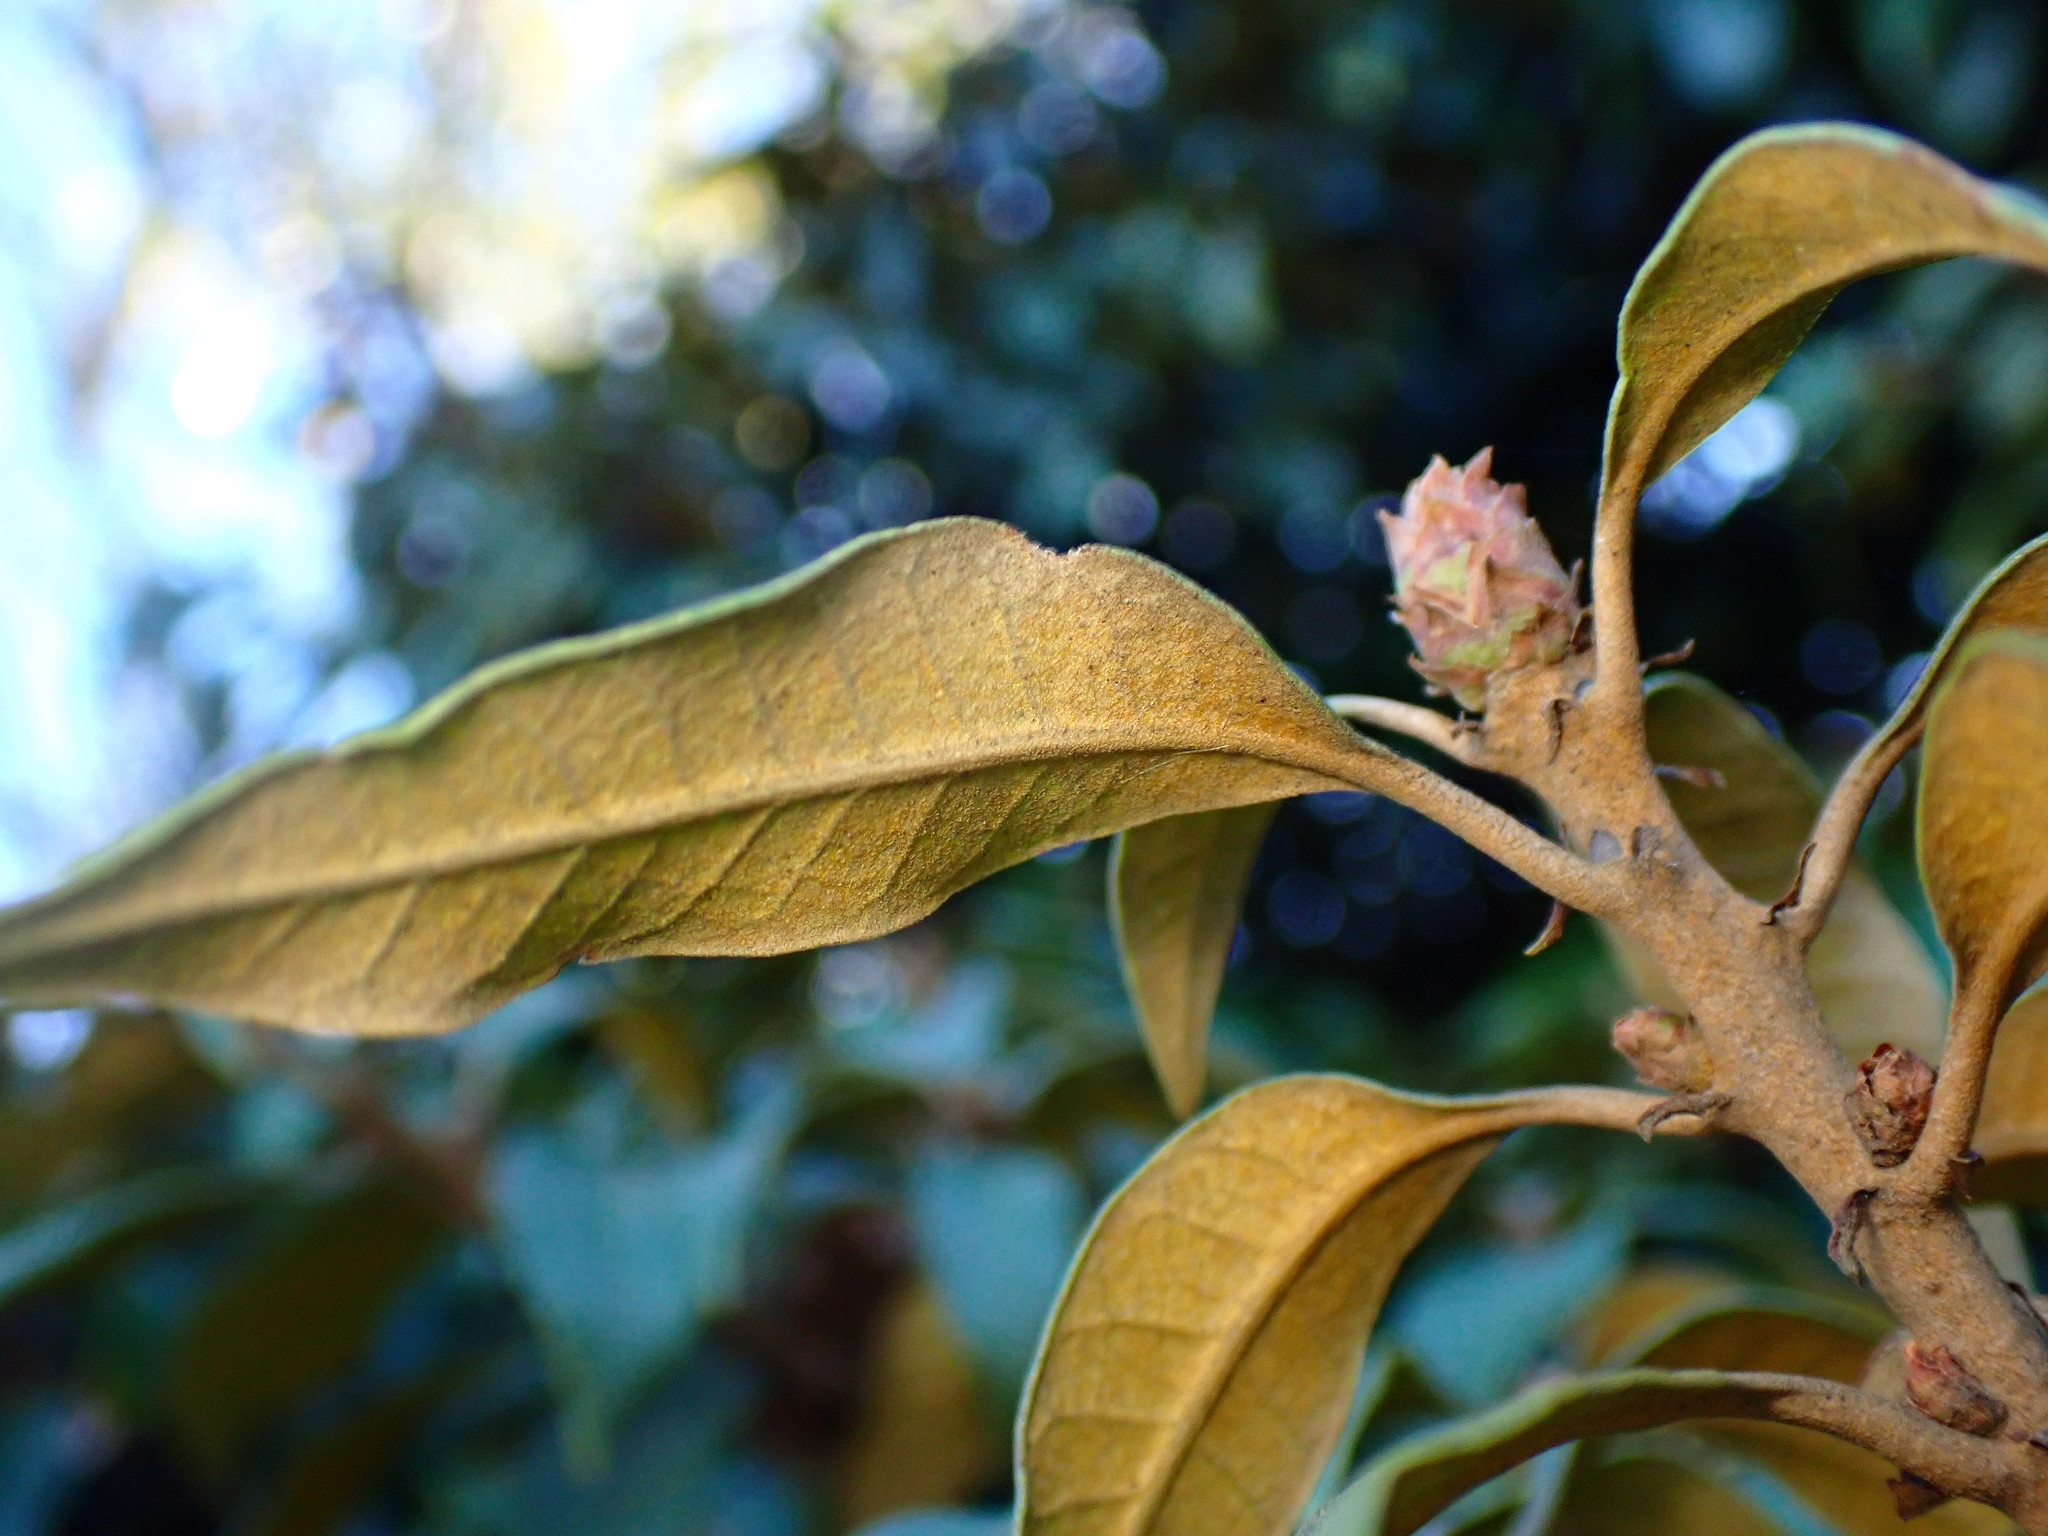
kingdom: Plantae
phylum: Tracheophyta
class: Magnoliopsida
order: Fagales
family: Fagaceae
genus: Chrysolepis
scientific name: Chrysolepis chrysophylla
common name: Giant chinquapin
